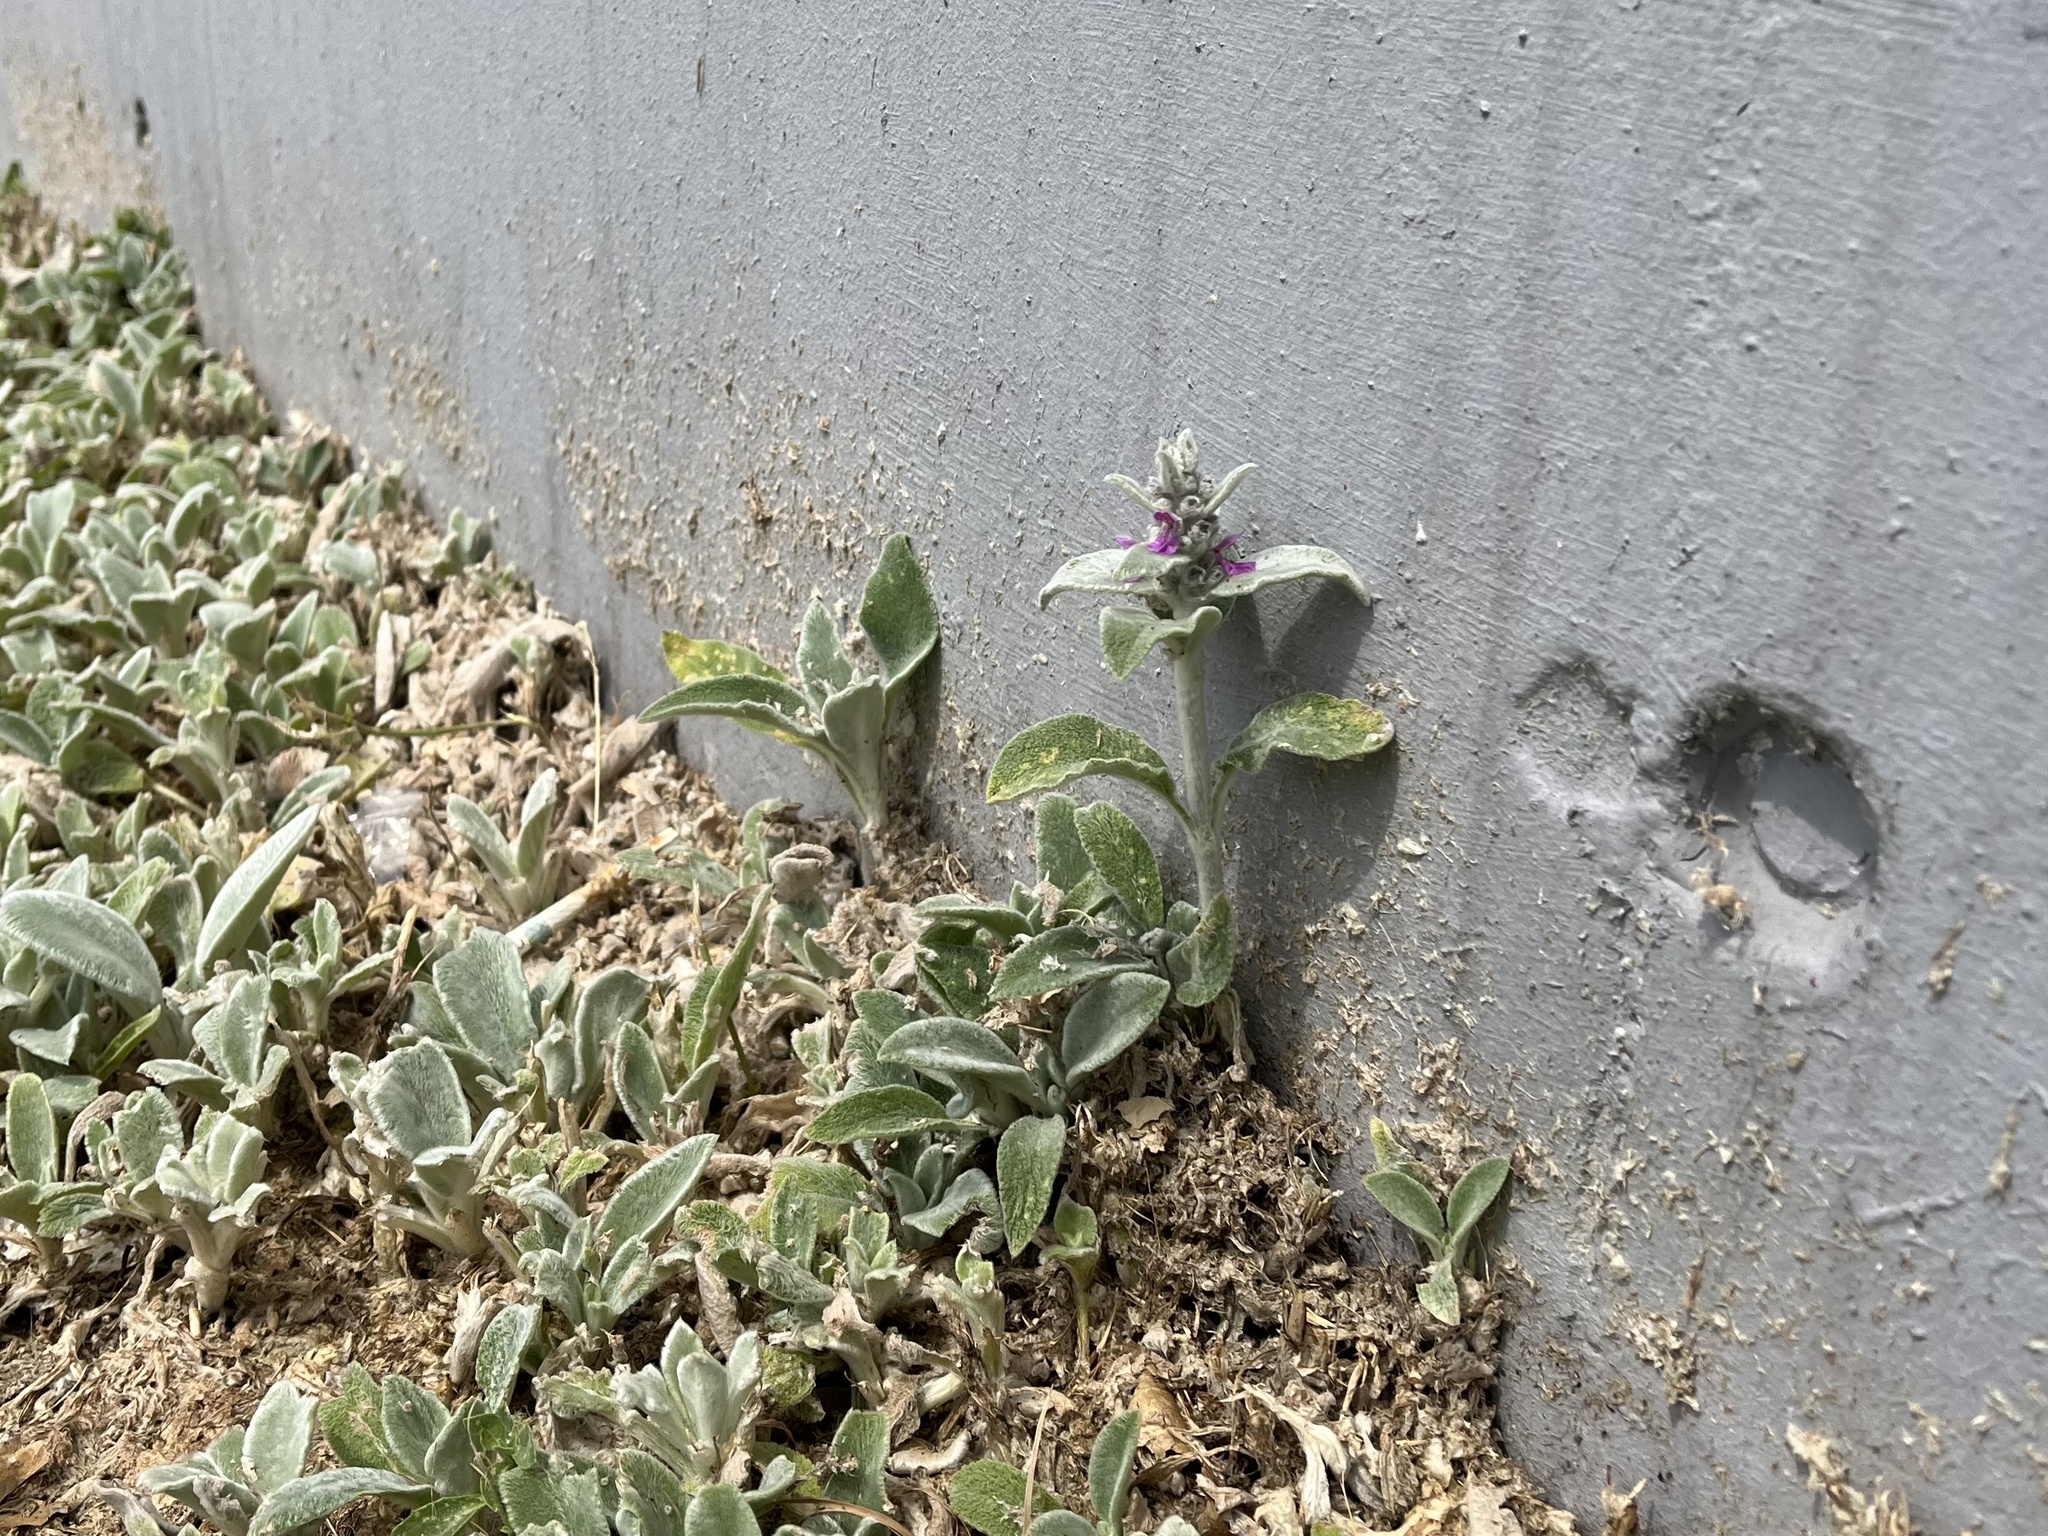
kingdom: Plantae
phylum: Tracheophyta
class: Magnoliopsida
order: Lamiales
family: Lamiaceae
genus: Stachys
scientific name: Stachys byzantina
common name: Lamb's-ear
